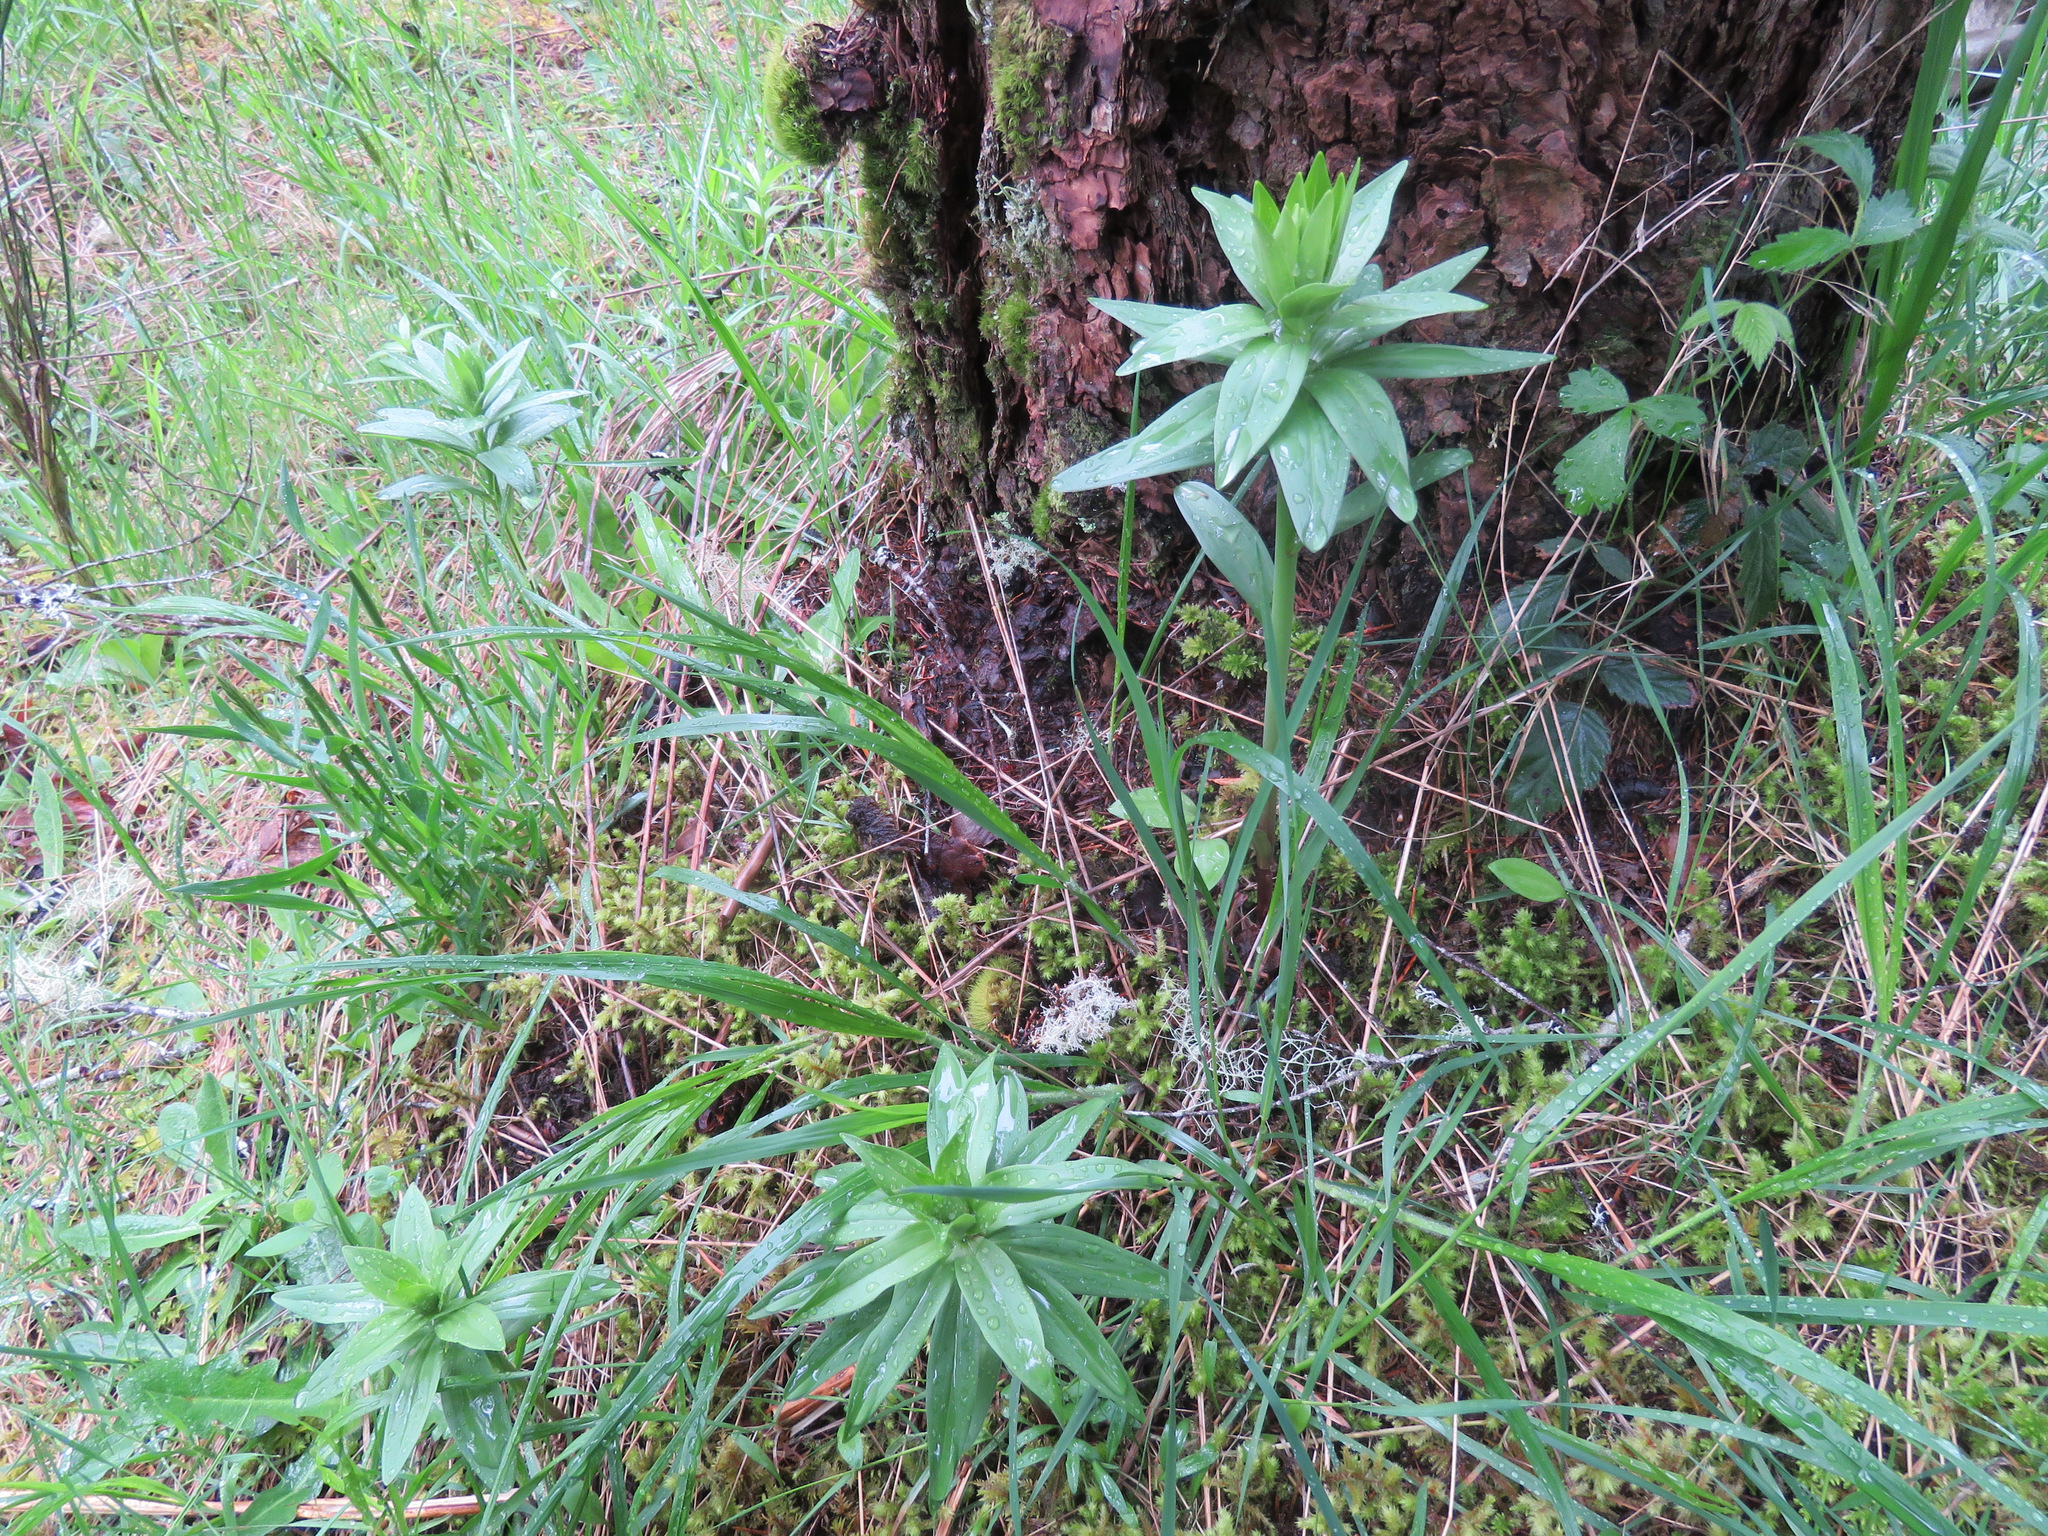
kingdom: Plantae
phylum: Tracheophyta
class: Liliopsida
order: Liliales
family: Liliaceae
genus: Lilium
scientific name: Lilium columbianum
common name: Columbia lily
